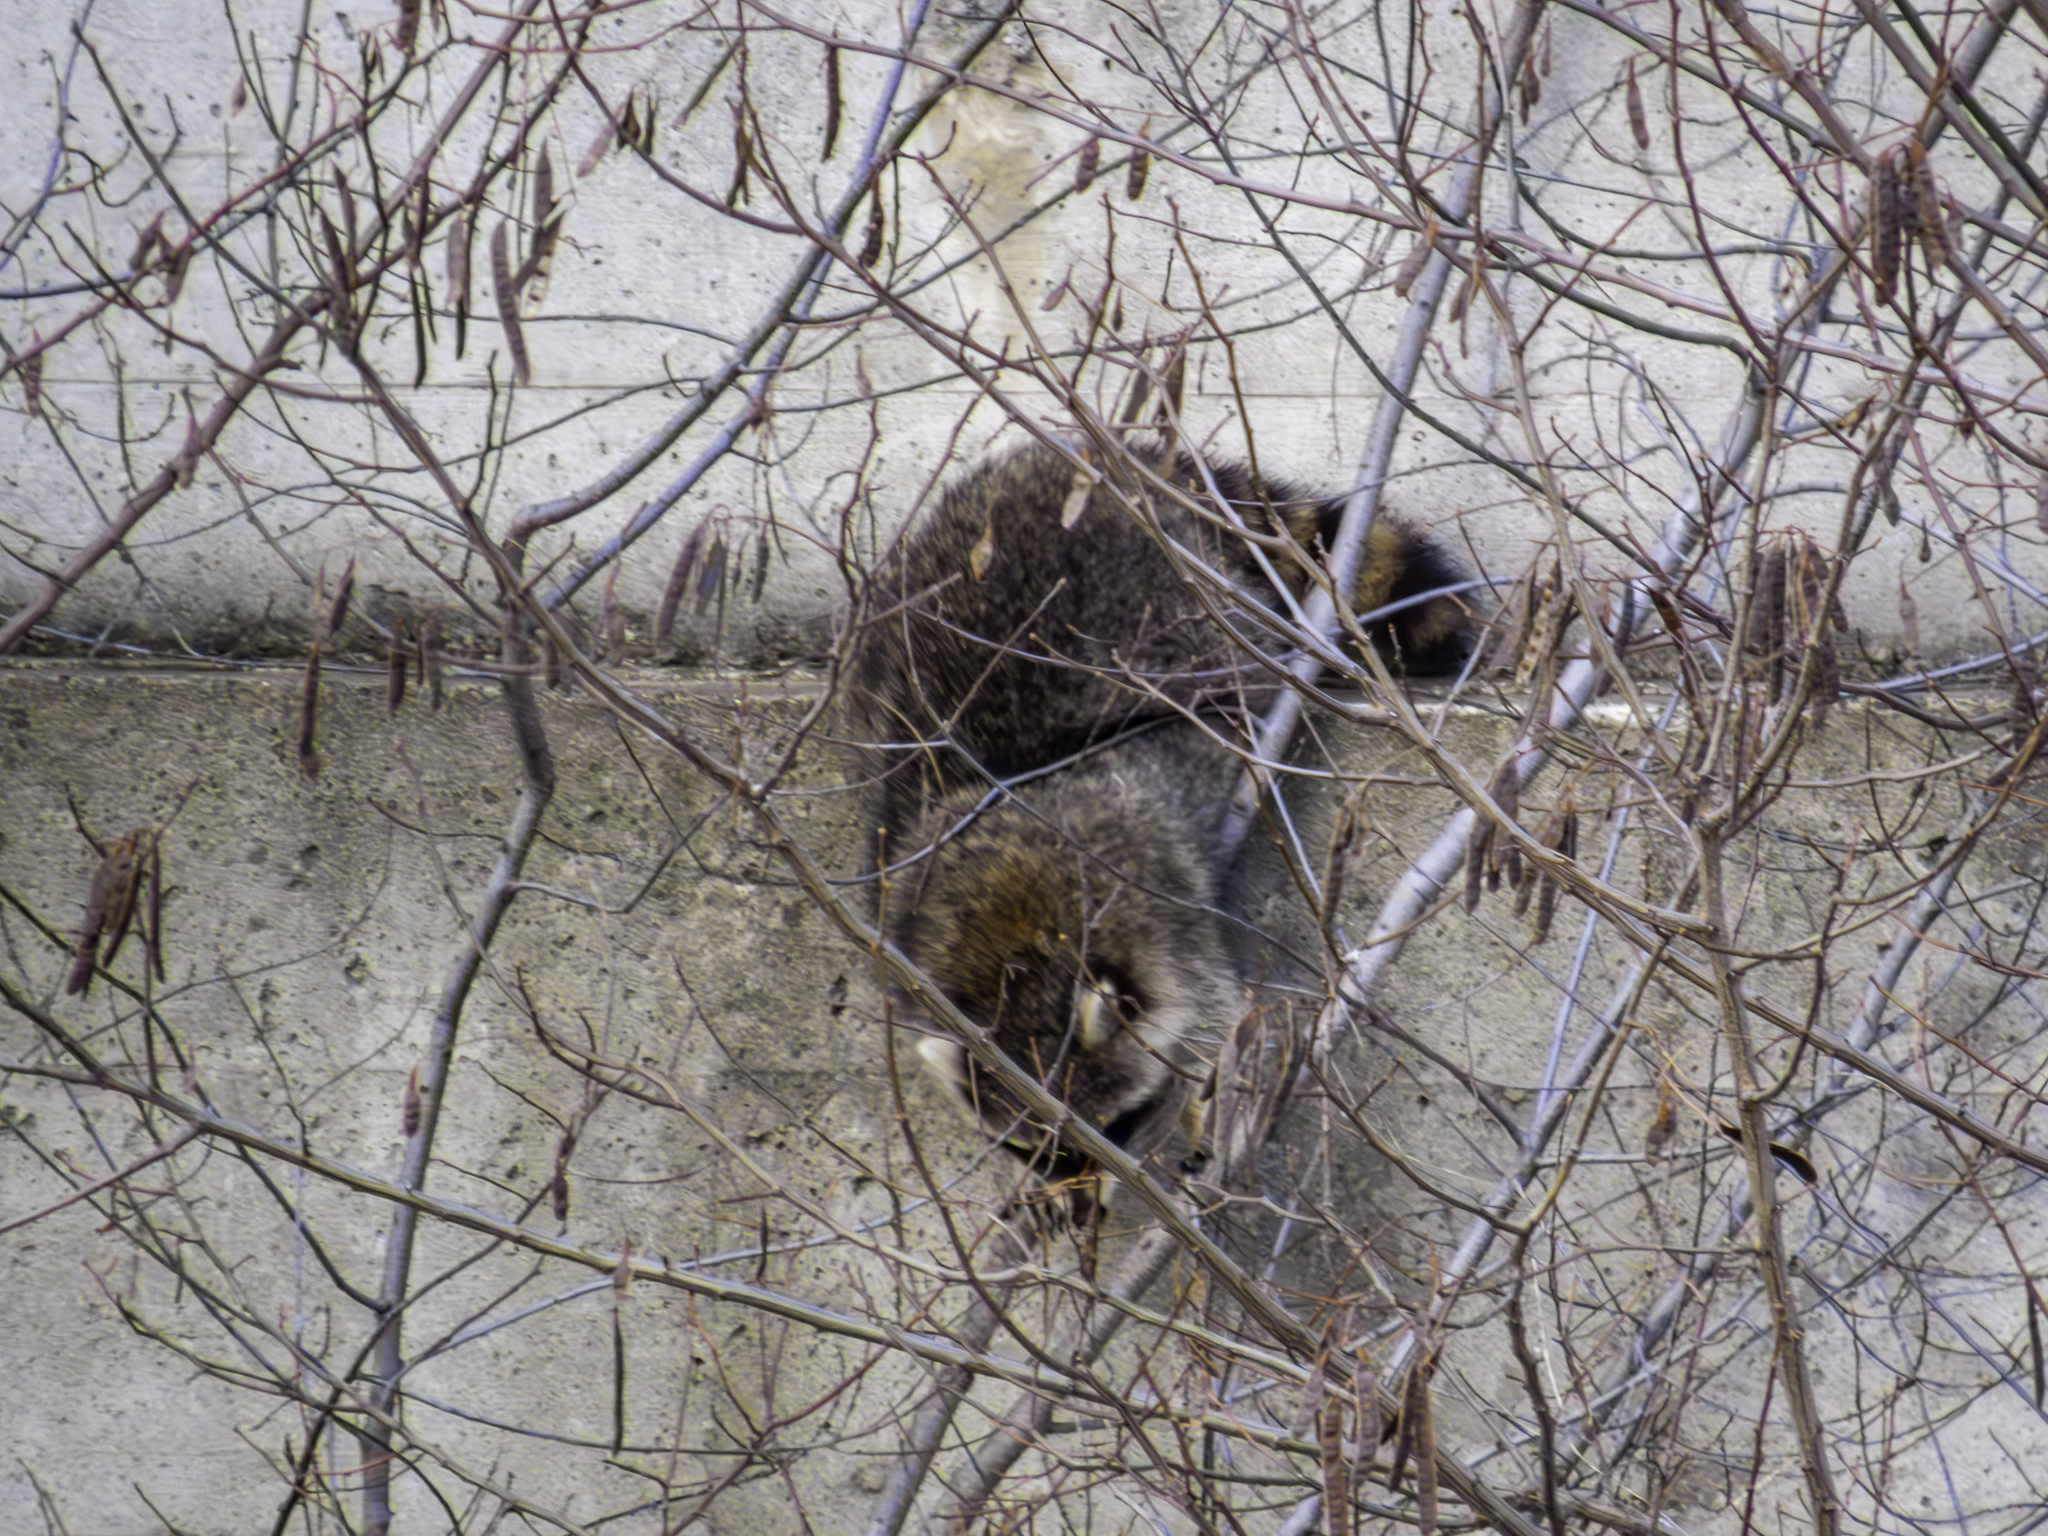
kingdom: Animalia
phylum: Chordata
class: Mammalia
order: Carnivora
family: Procyonidae
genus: Procyon
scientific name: Procyon lotor
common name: Raccoon
